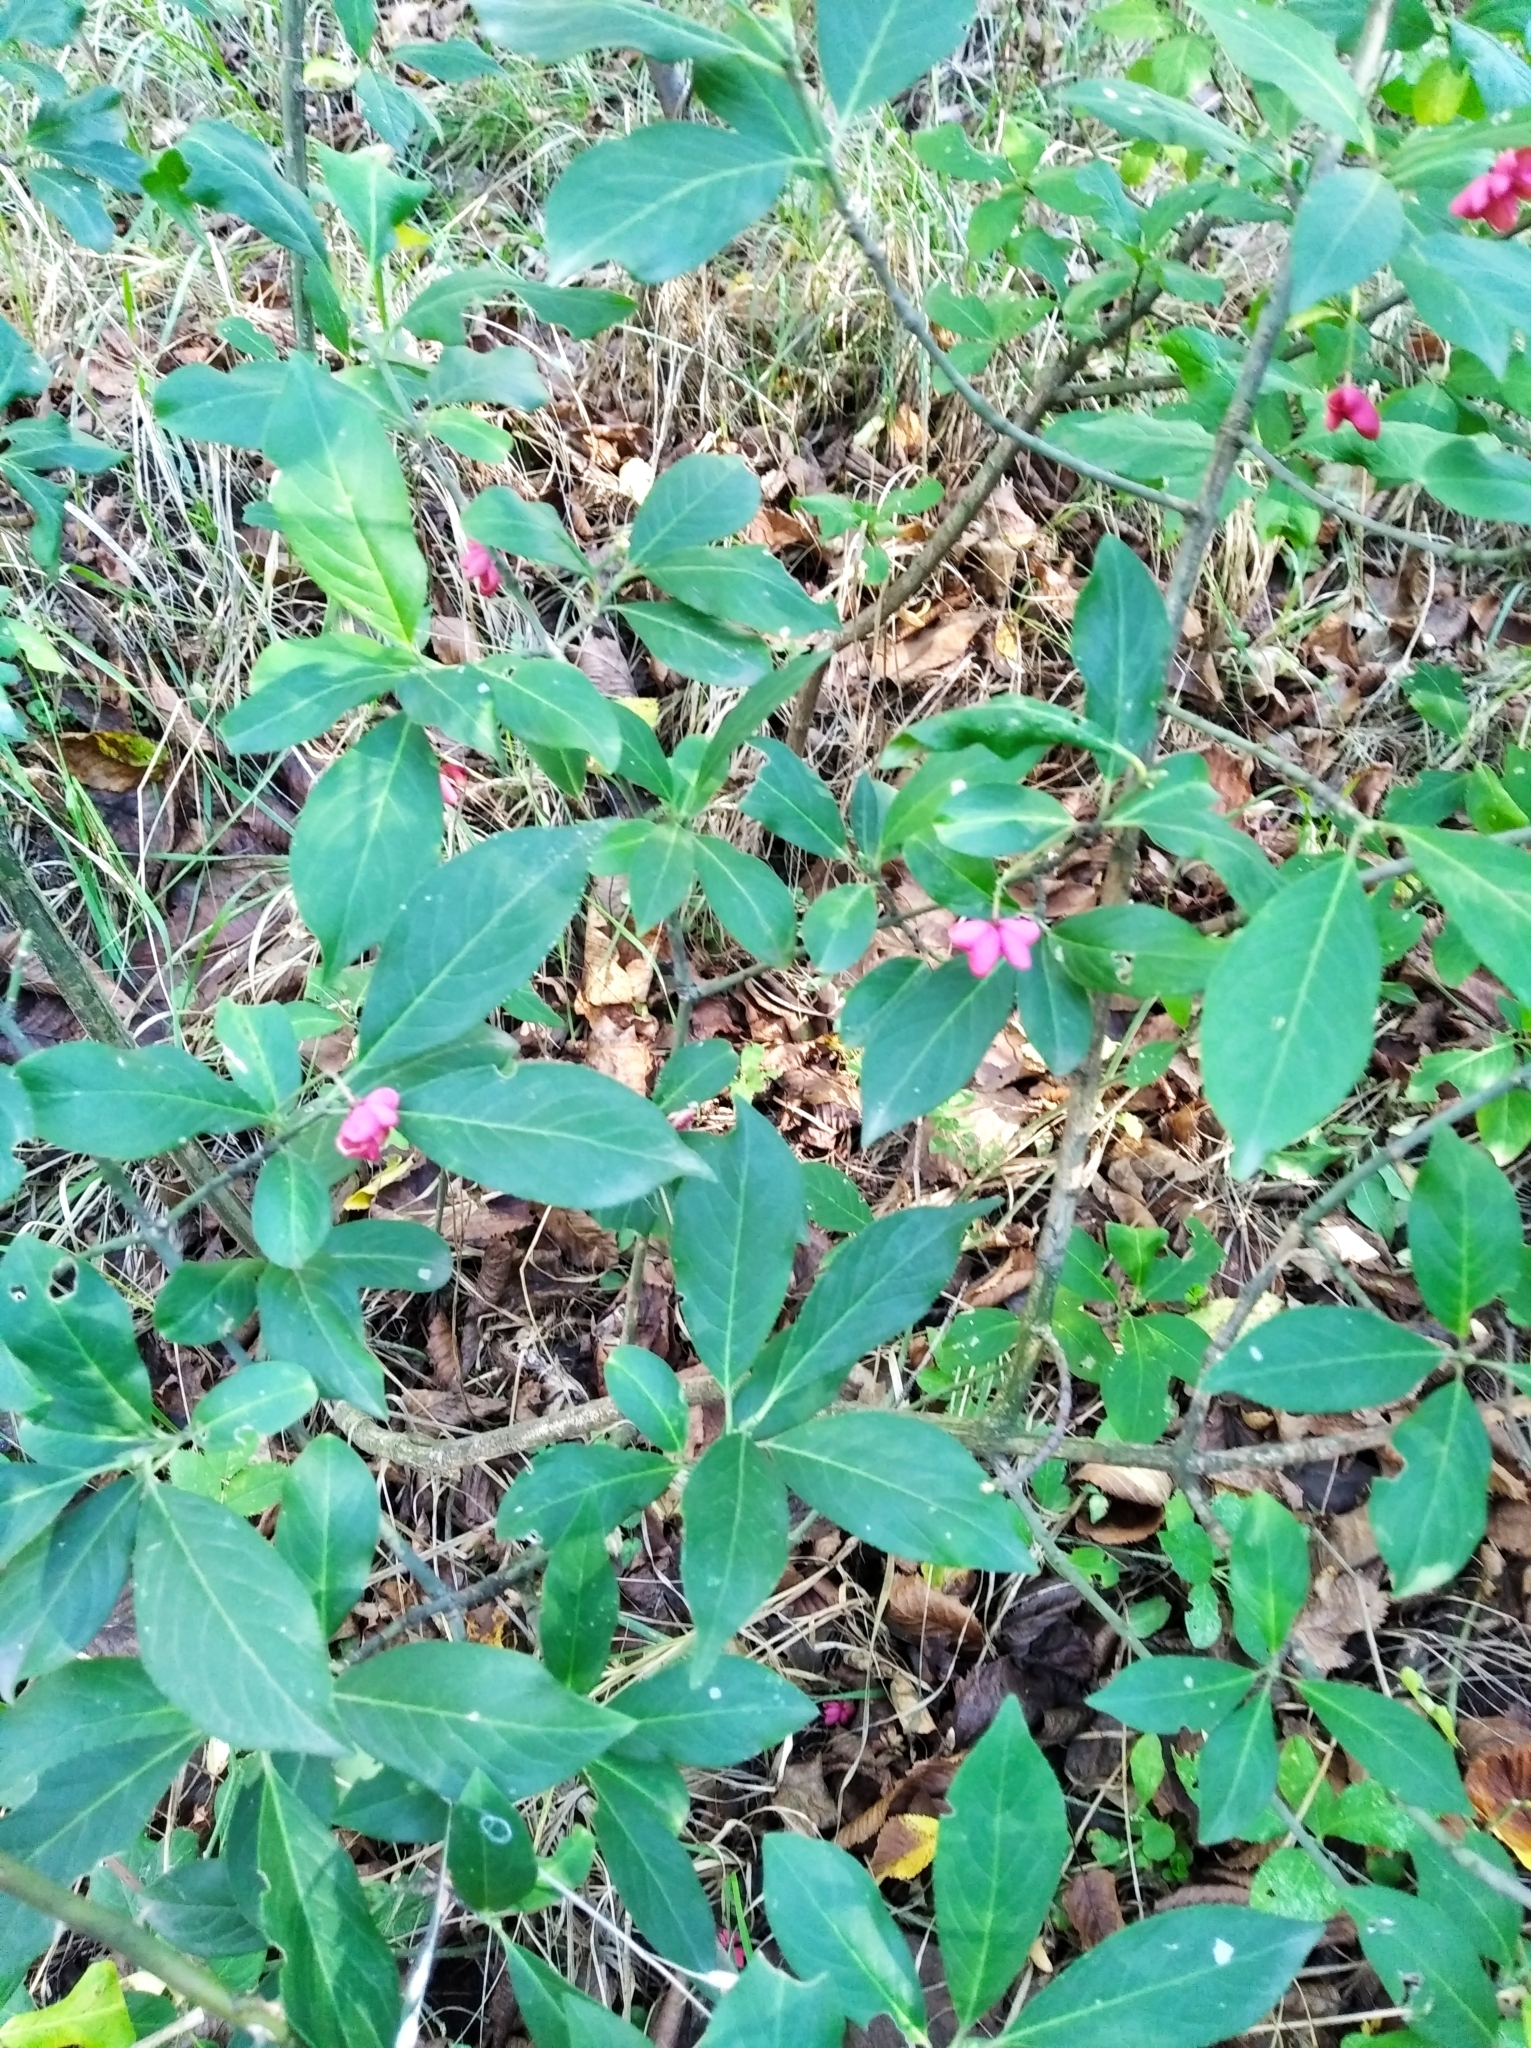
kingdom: Plantae
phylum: Tracheophyta
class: Magnoliopsida
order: Celastrales
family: Celastraceae
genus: Euonymus
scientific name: Euonymus europaeus
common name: Spindle
